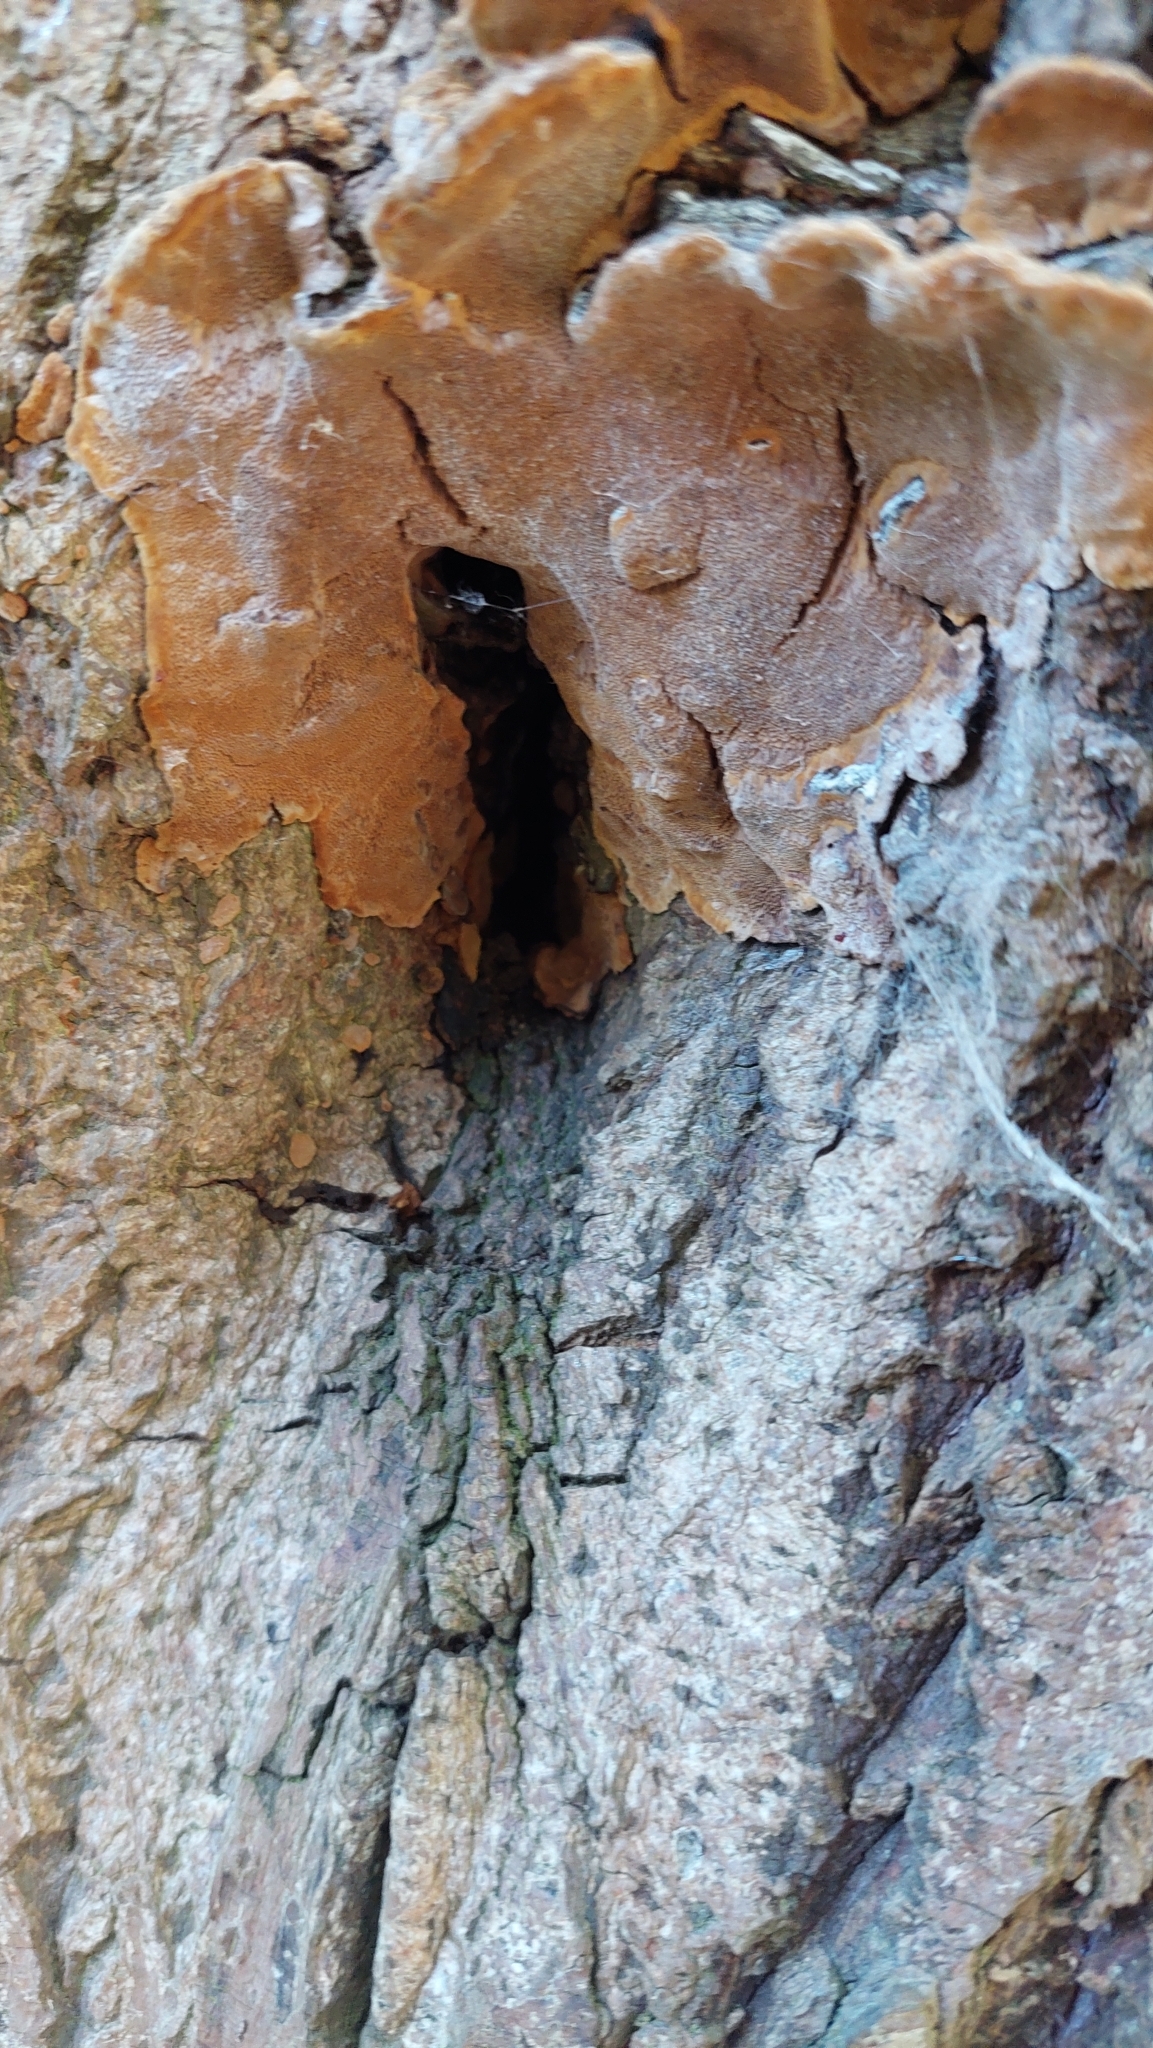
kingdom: Animalia
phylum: Arthropoda
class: Arachnida
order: Araneae
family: Araneidae
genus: Nuctenea
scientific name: Nuctenea umbratica
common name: Toad spider
